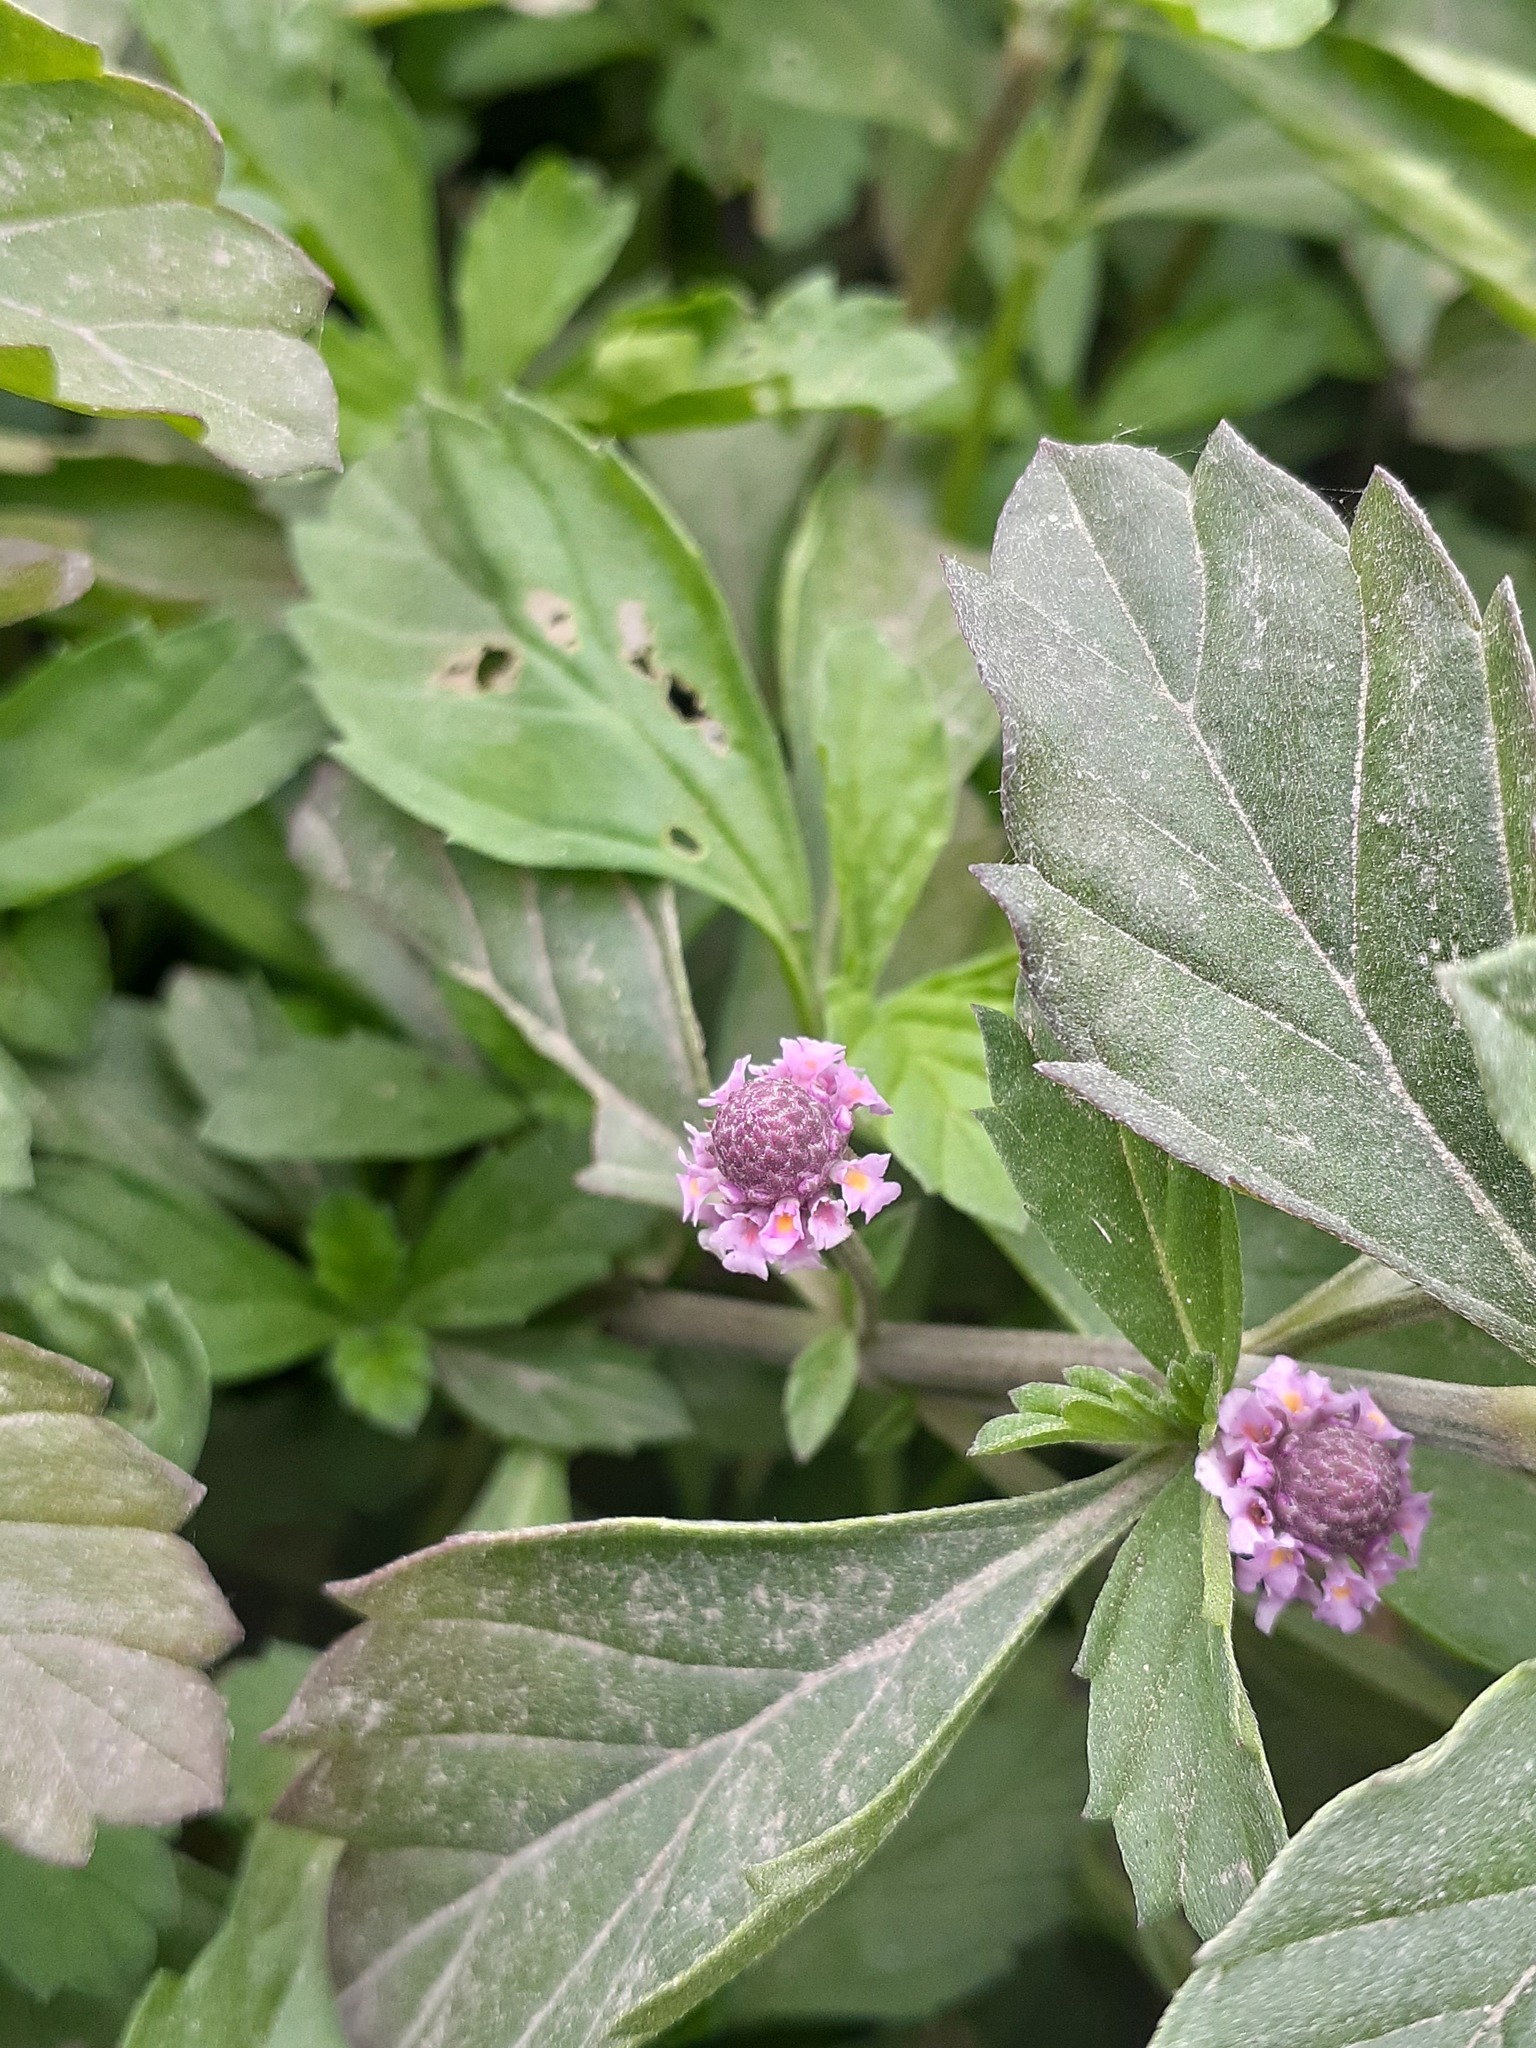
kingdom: Plantae
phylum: Tracheophyta
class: Magnoliopsida
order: Lamiales
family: Verbenaceae
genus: Phyla
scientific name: Phyla nodiflora
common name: Frogfruit
